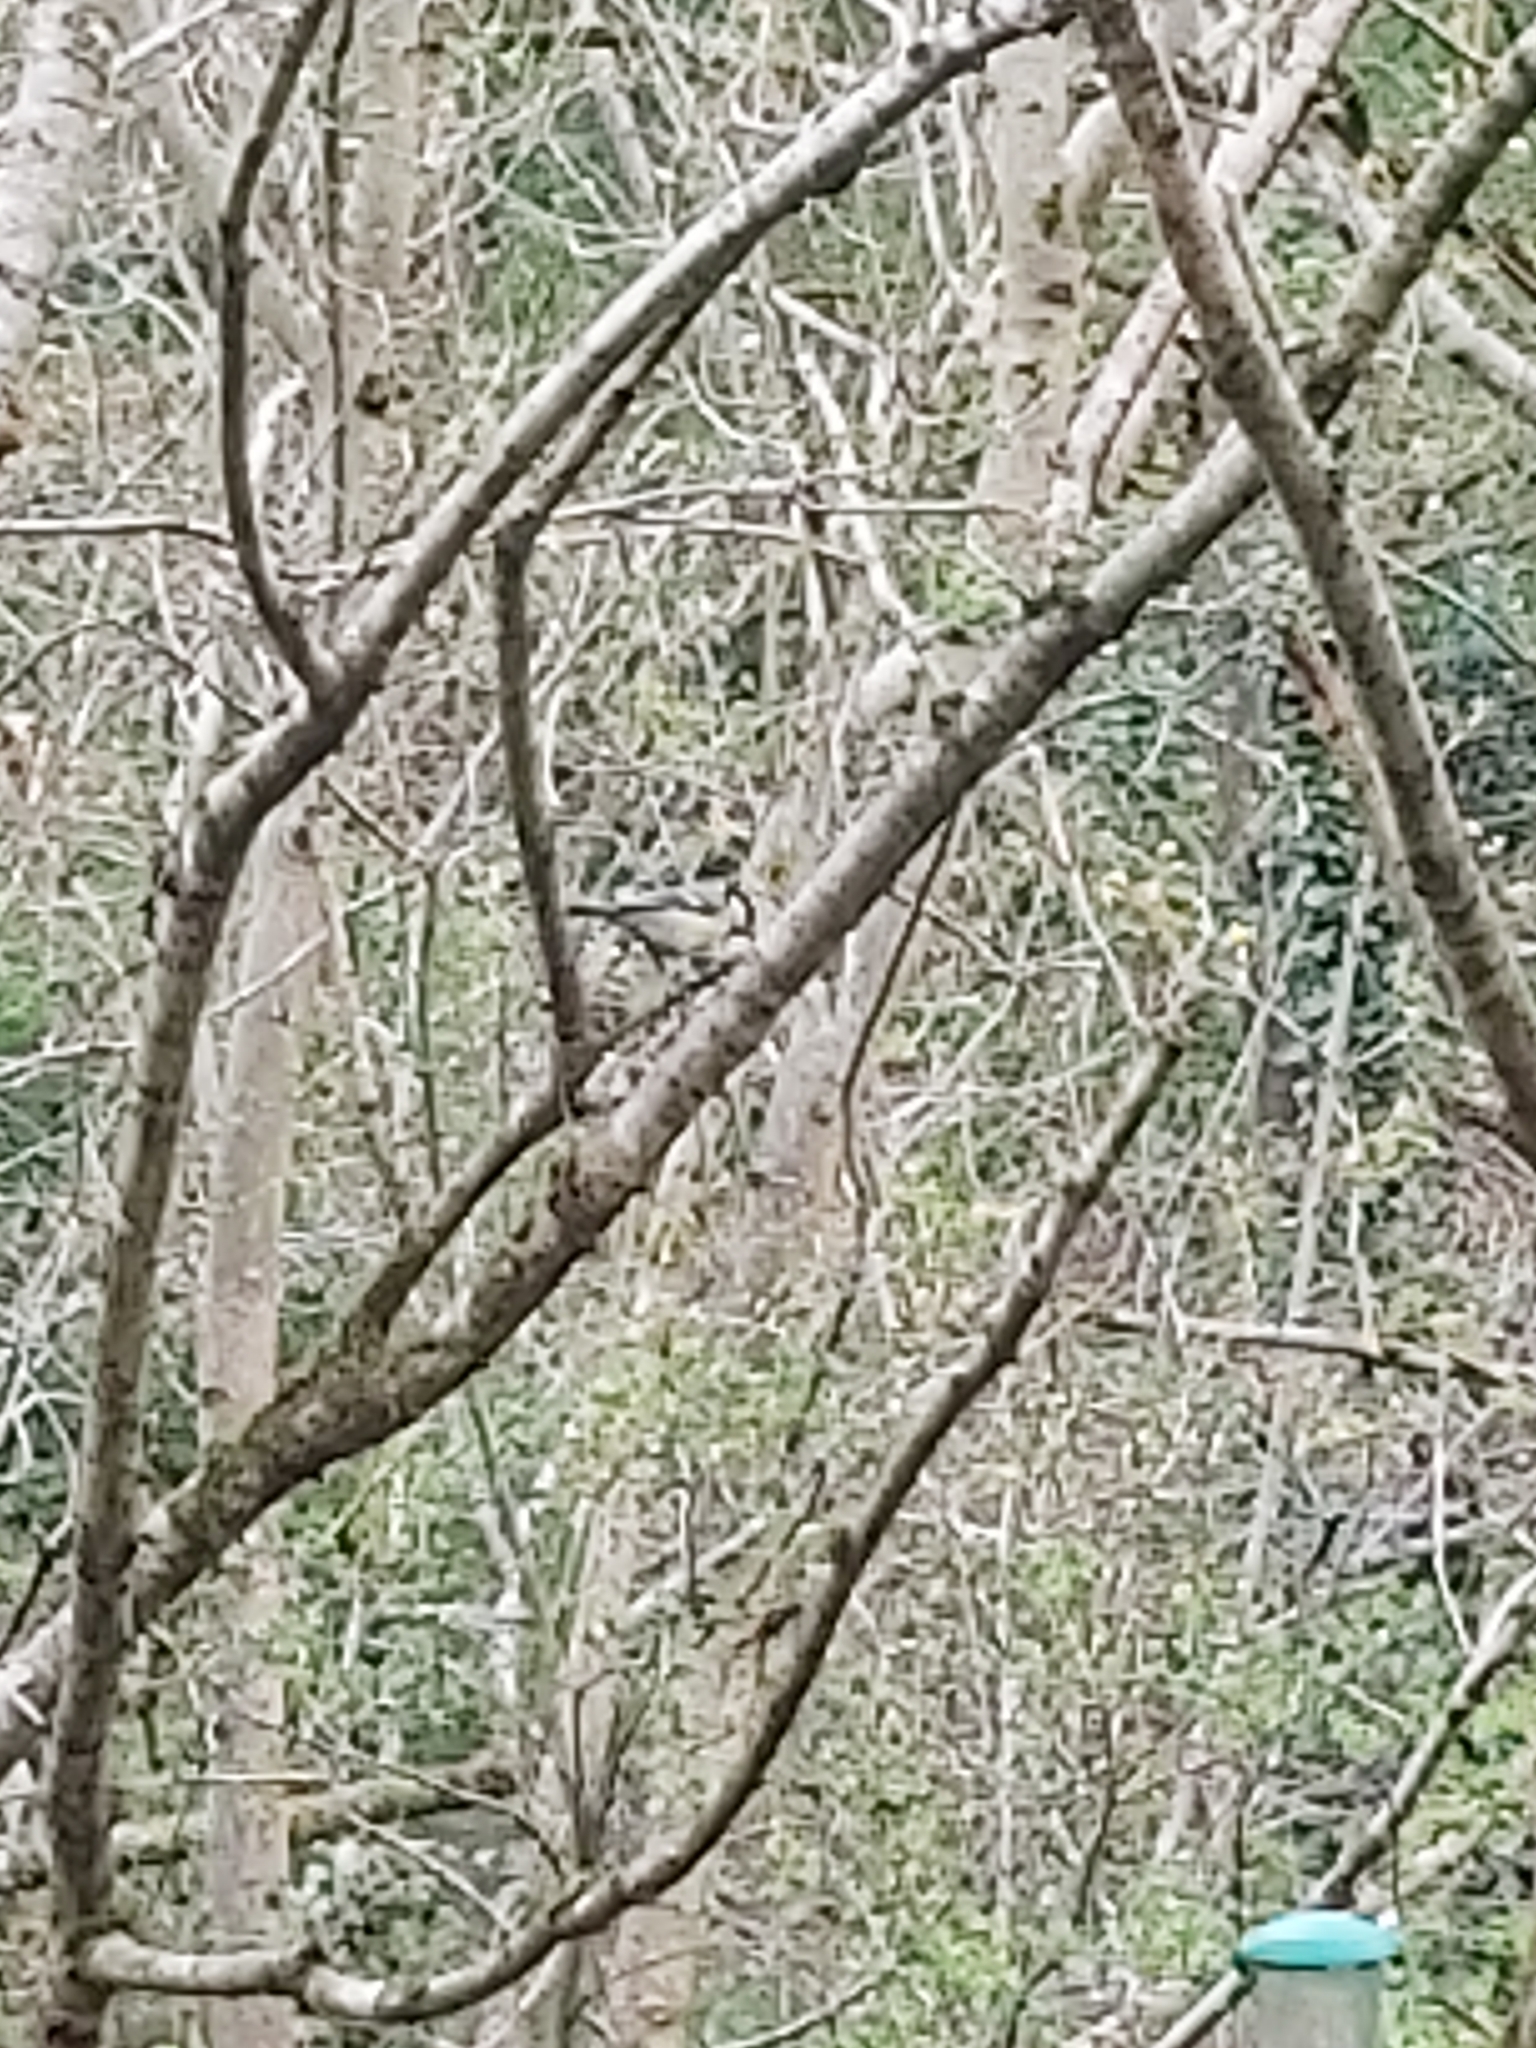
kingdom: Animalia
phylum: Chordata
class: Aves
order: Passeriformes
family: Paridae
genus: Parus
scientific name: Parus major
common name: Great tit
